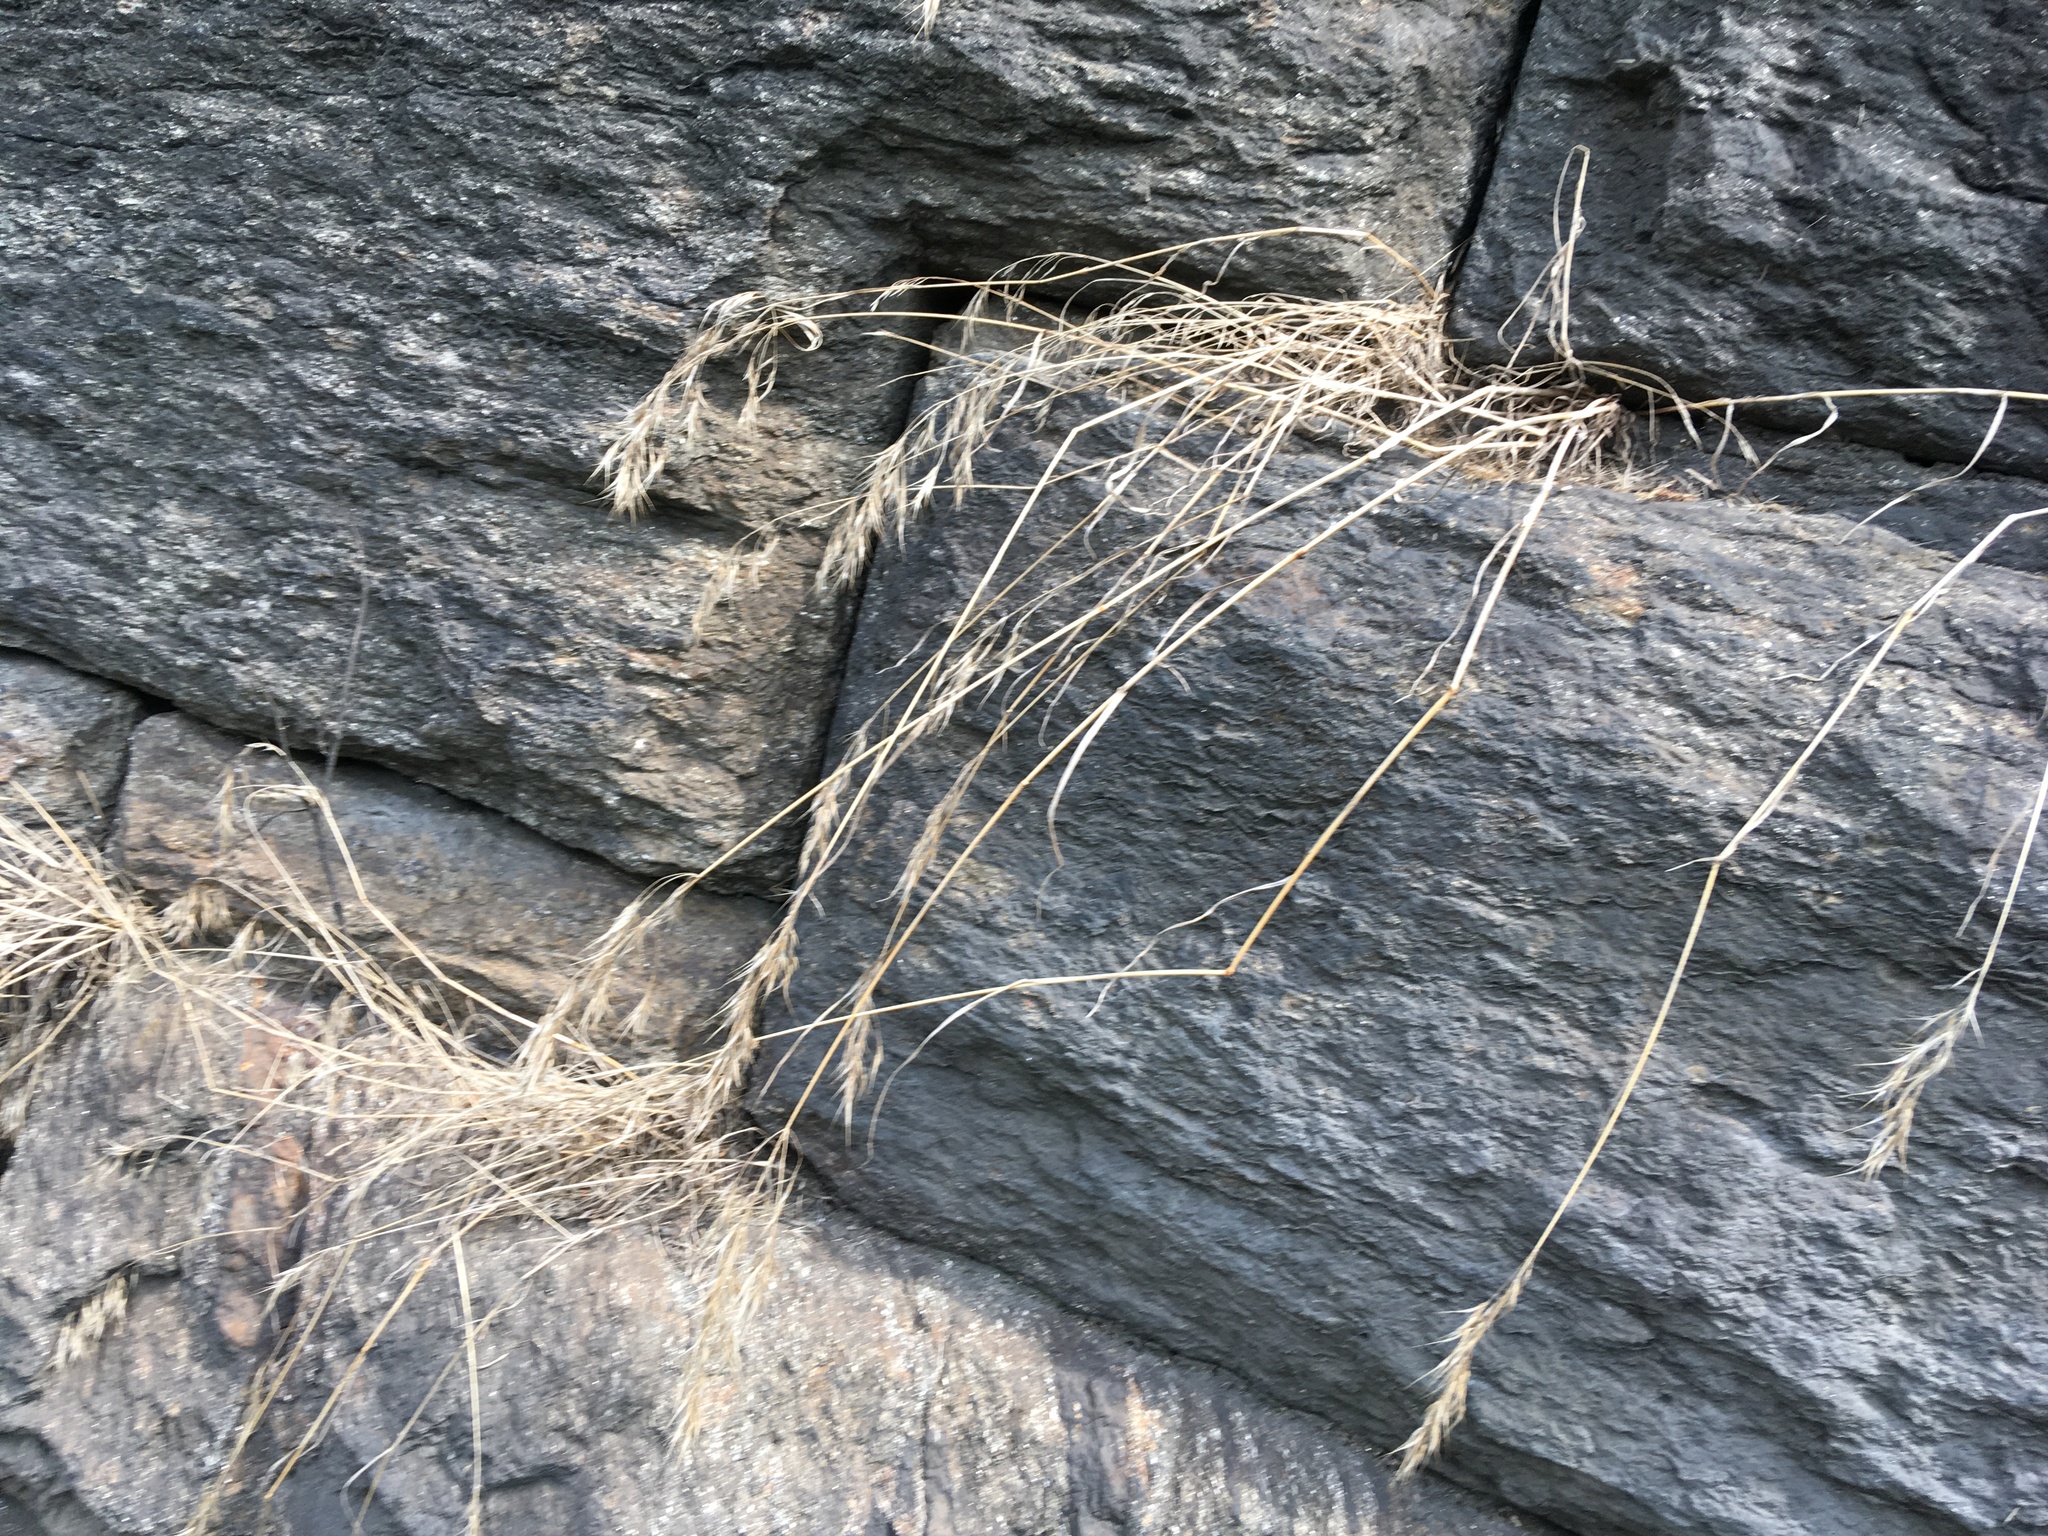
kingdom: Plantae
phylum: Tracheophyta
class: Liliopsida
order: Poales
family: Poaceae
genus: Bromus
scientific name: Bromus tectorum
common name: Cheatgrass
